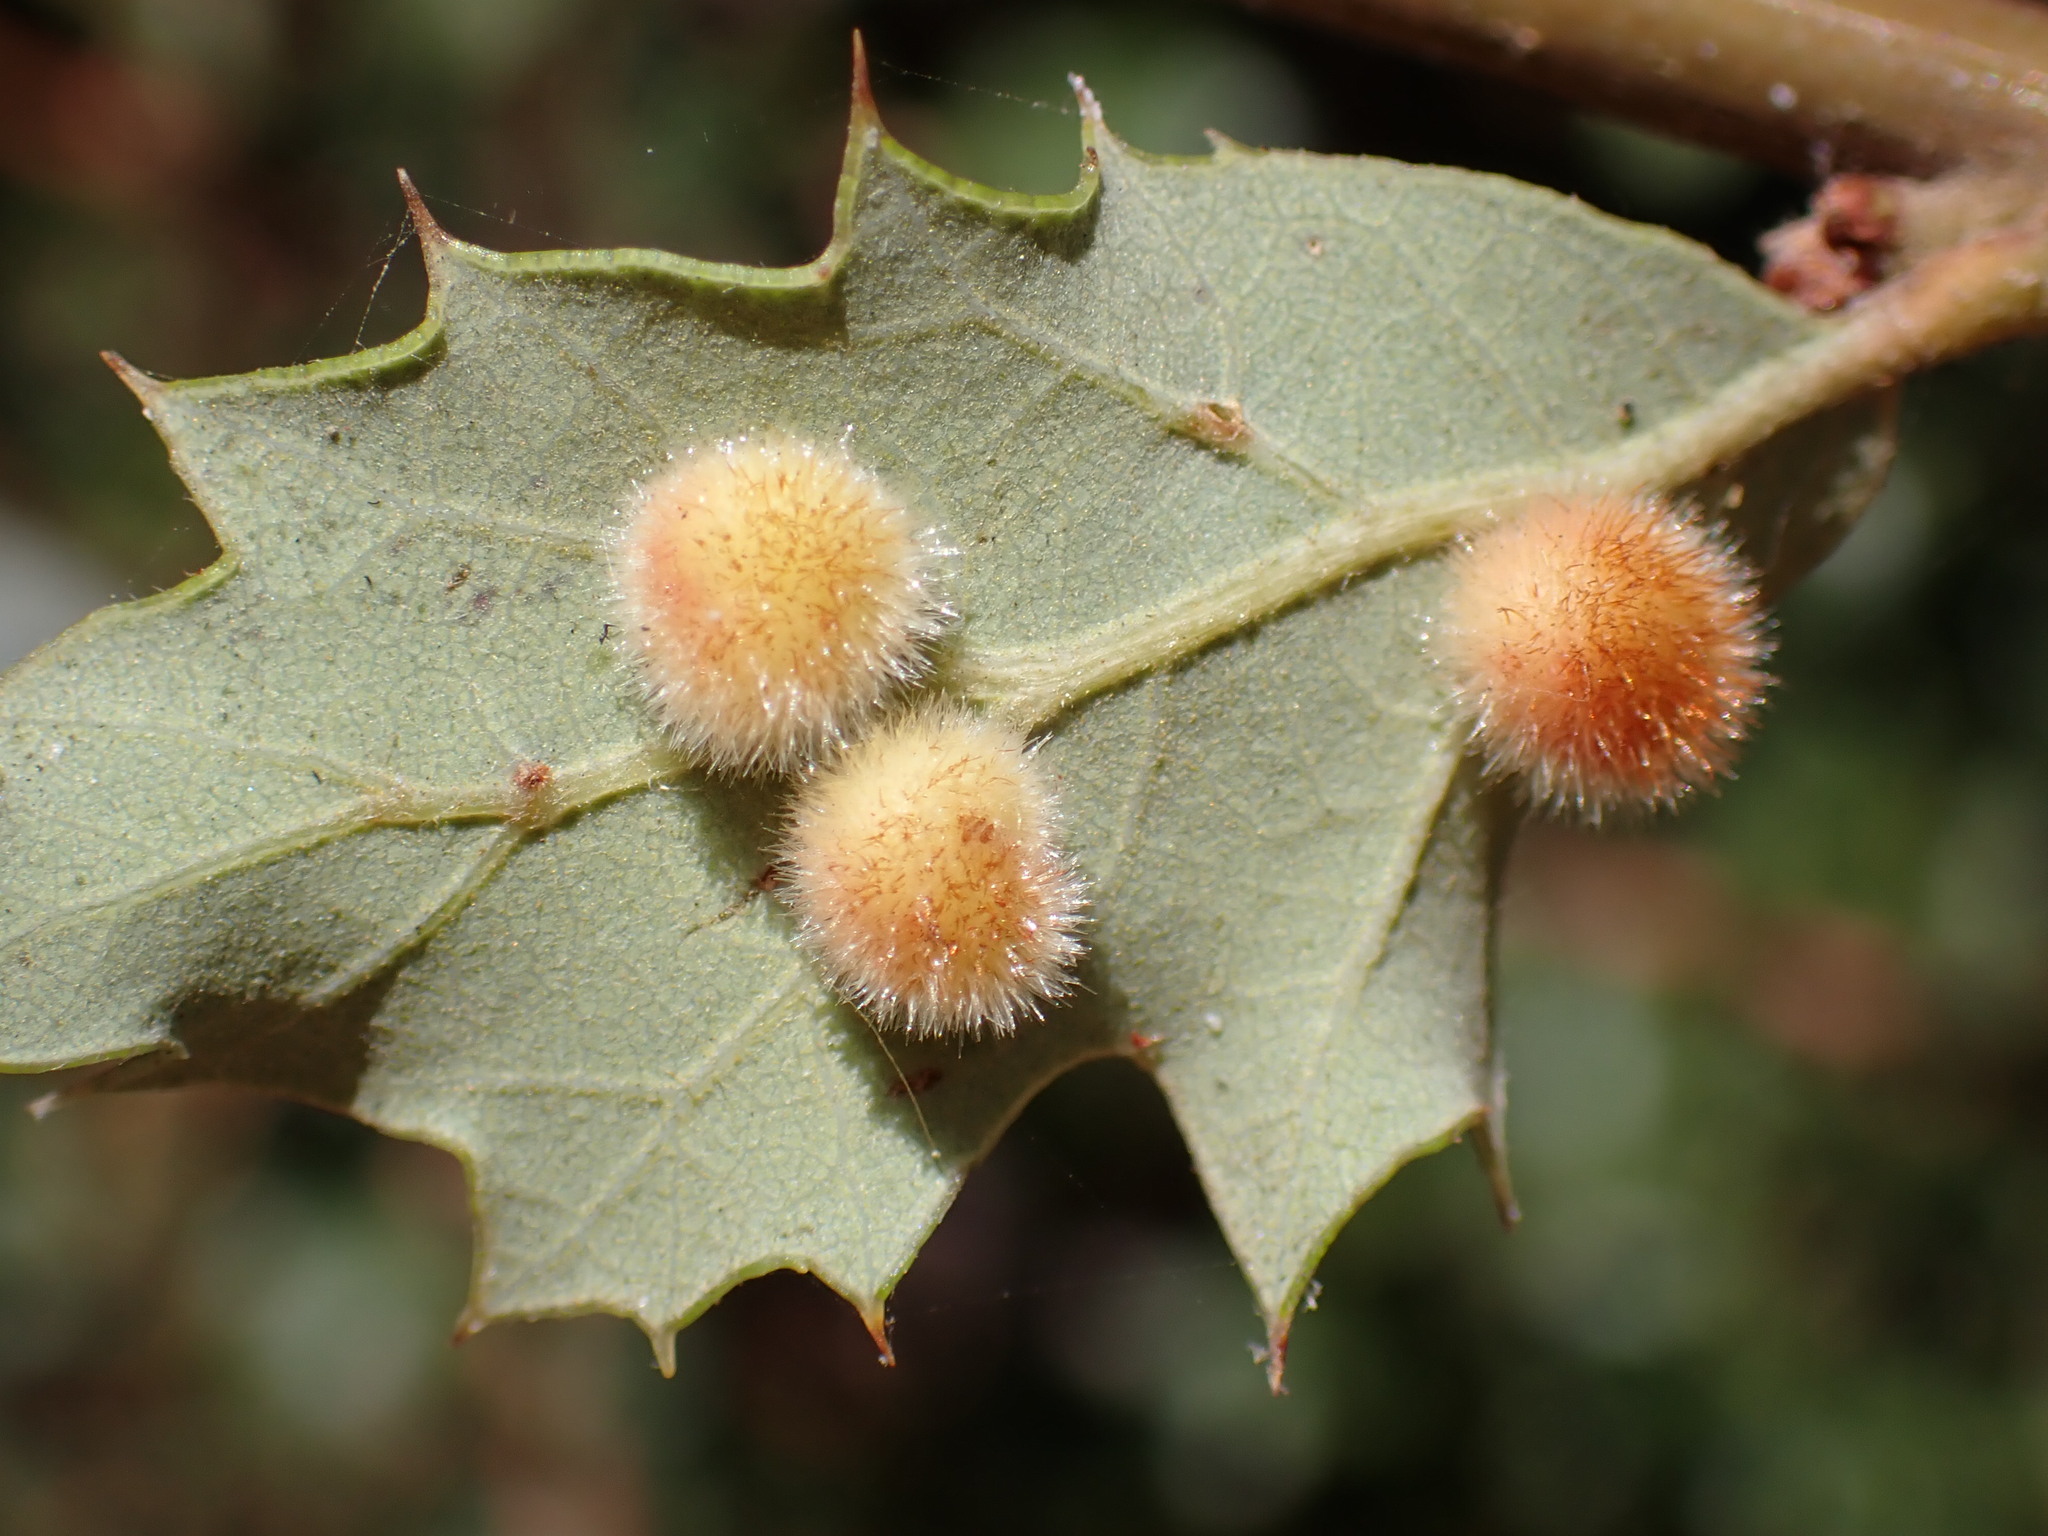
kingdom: Animalia
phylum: Arthropoda
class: Insecta
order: Hymenoptera
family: Cynipidae
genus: Atrusca
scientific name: Atrusca
